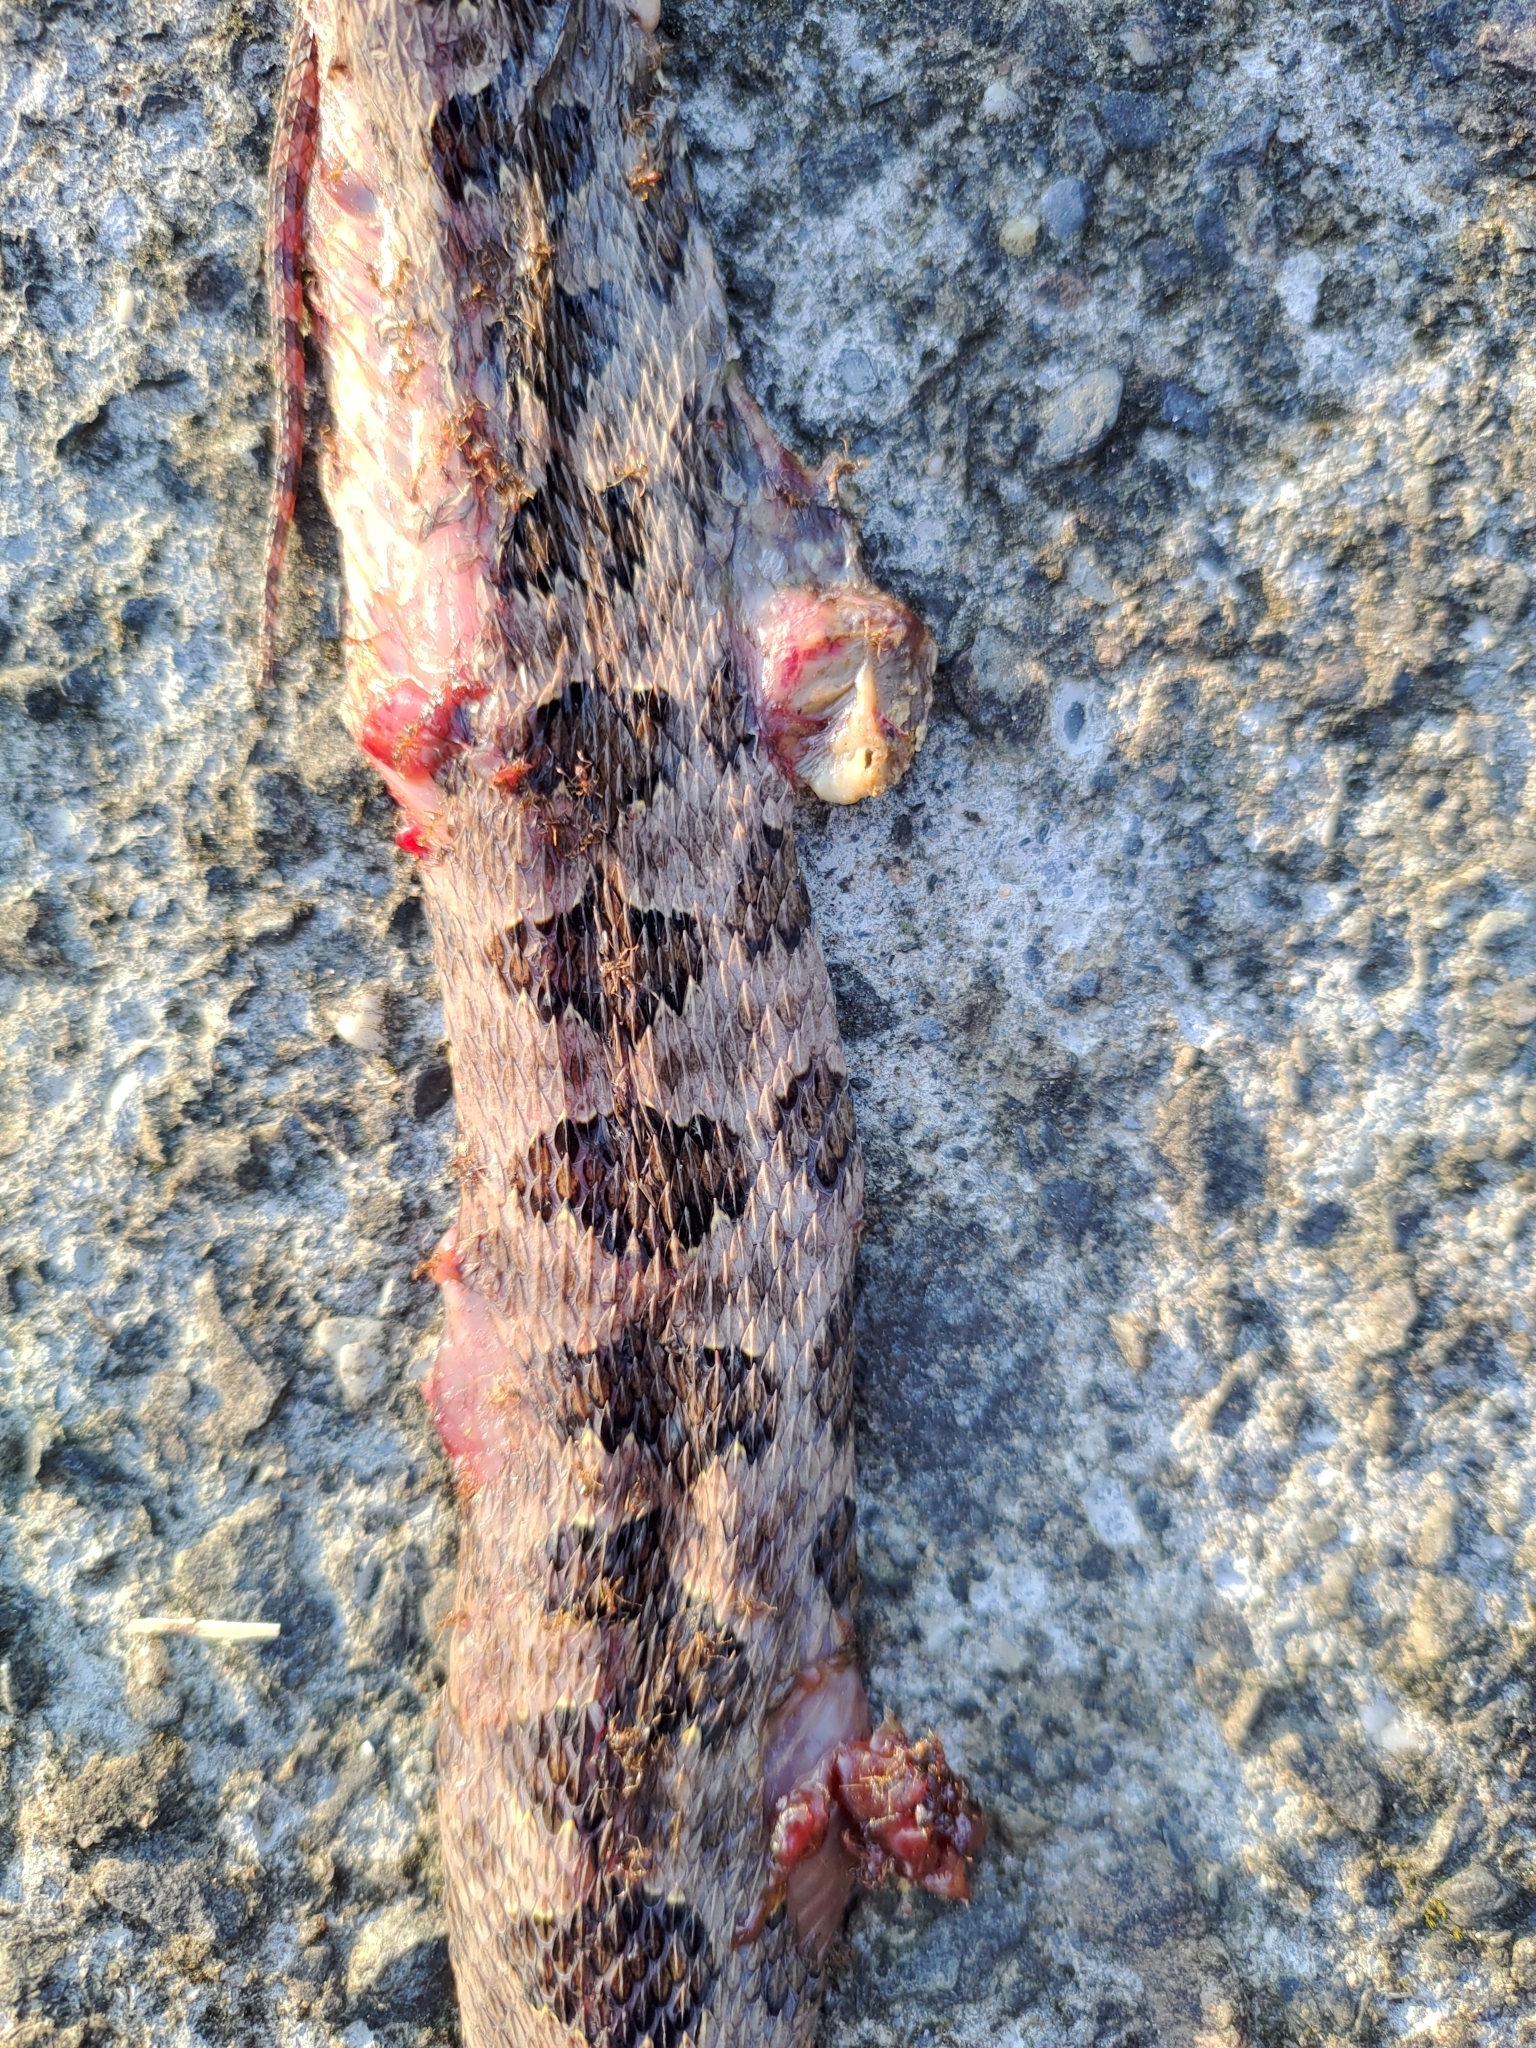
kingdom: Animalia
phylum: Chordata
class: Squamata
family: Viperidae
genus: Protobothrops
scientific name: Protobothrops mucrosquamatus
